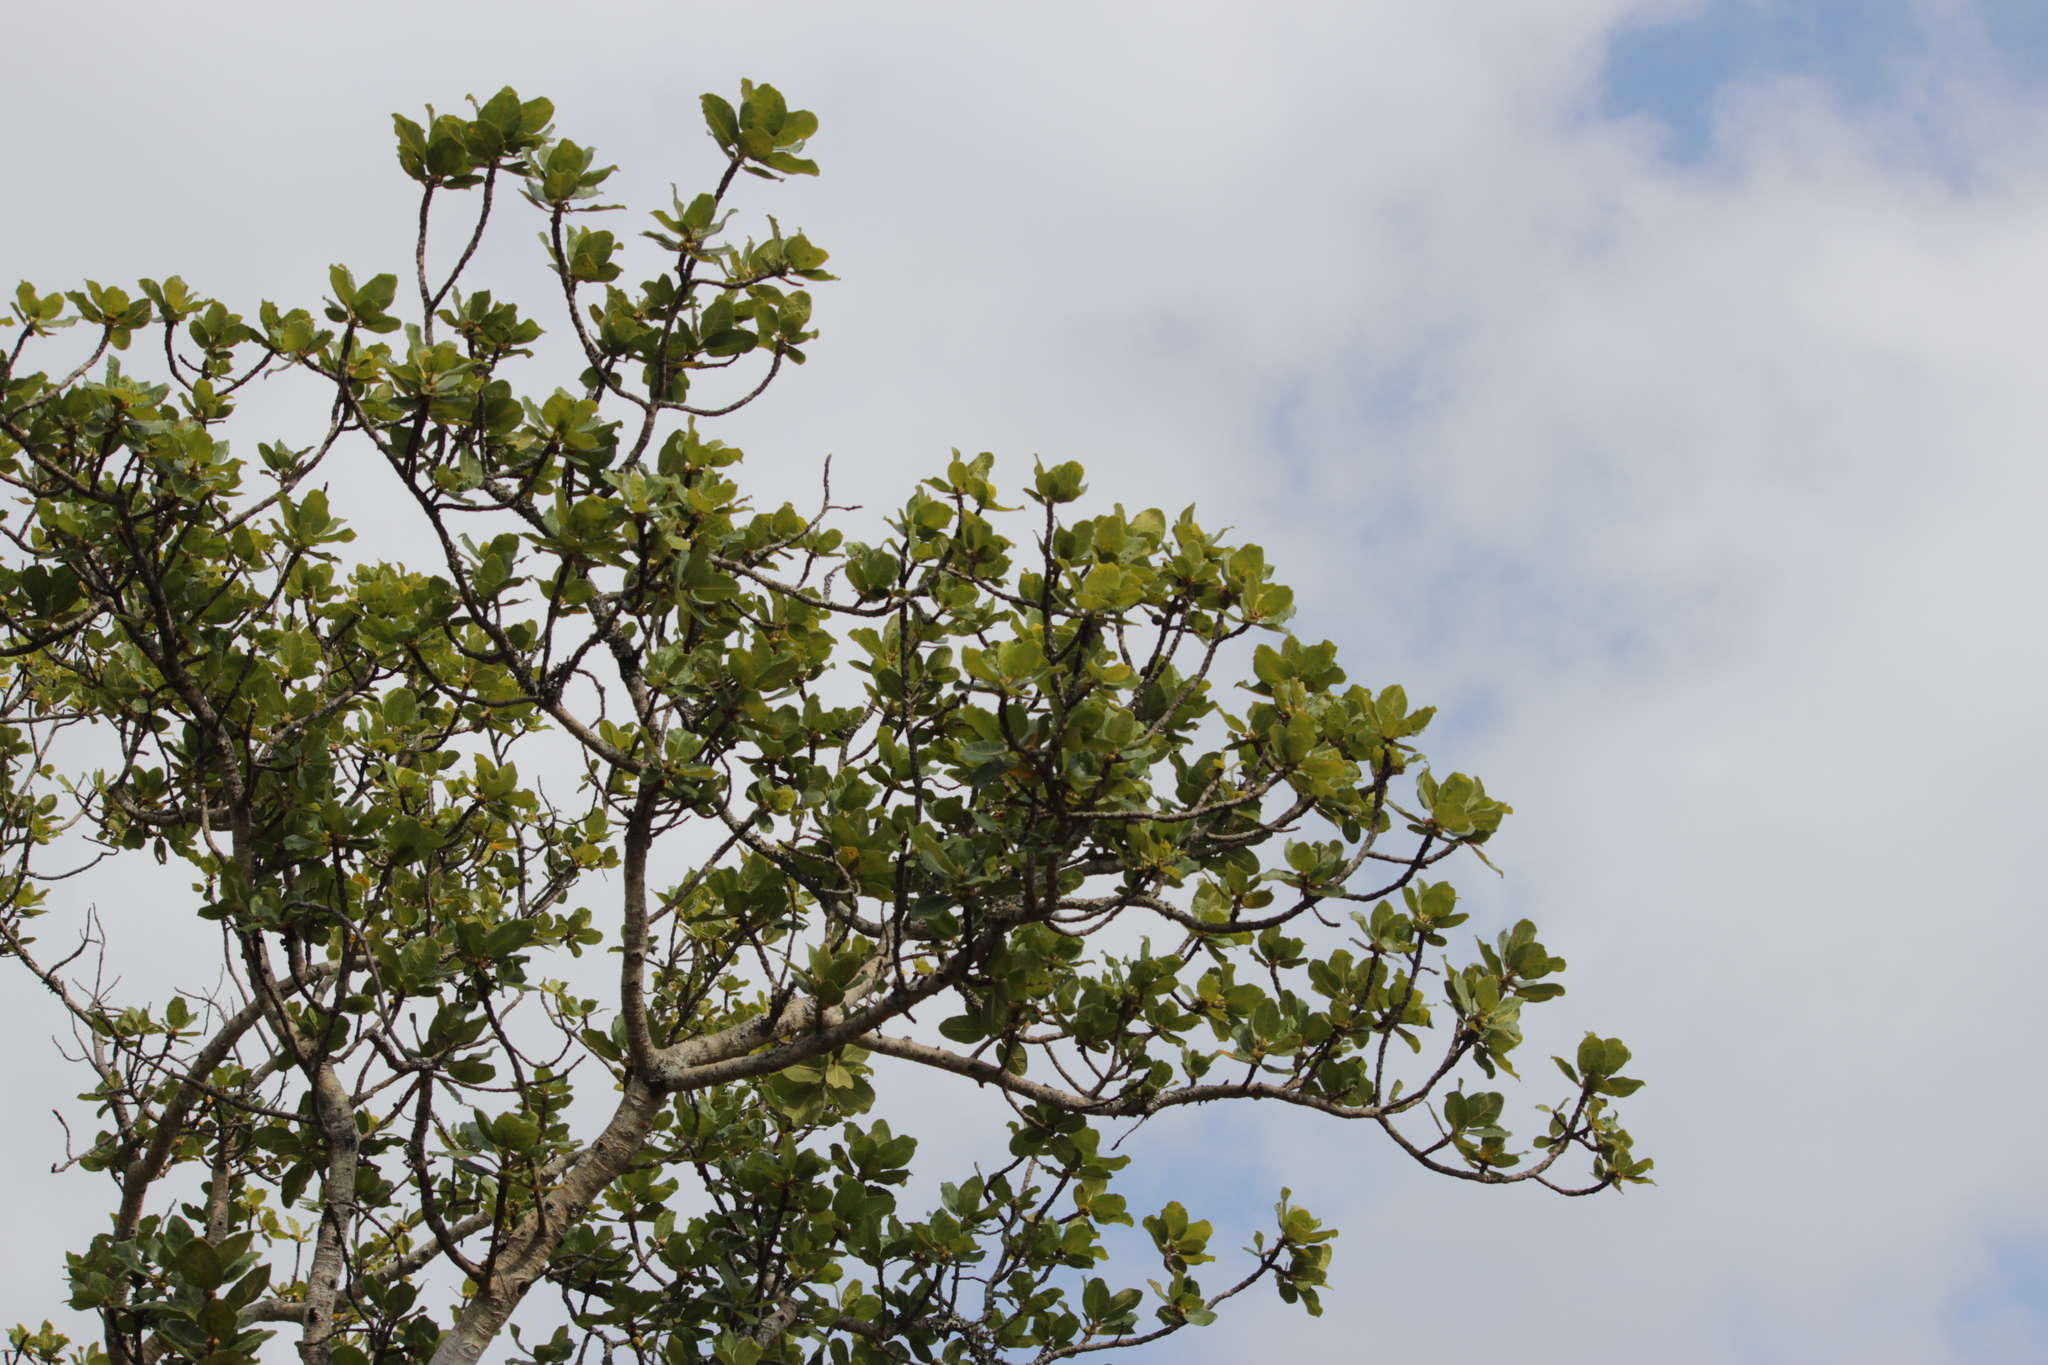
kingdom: Plantae
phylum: Tracheophyta
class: Magnoliopsida
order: Rosales
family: Moraceae
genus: Ficus
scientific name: Ficus glumosa
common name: Hairy rock fig
